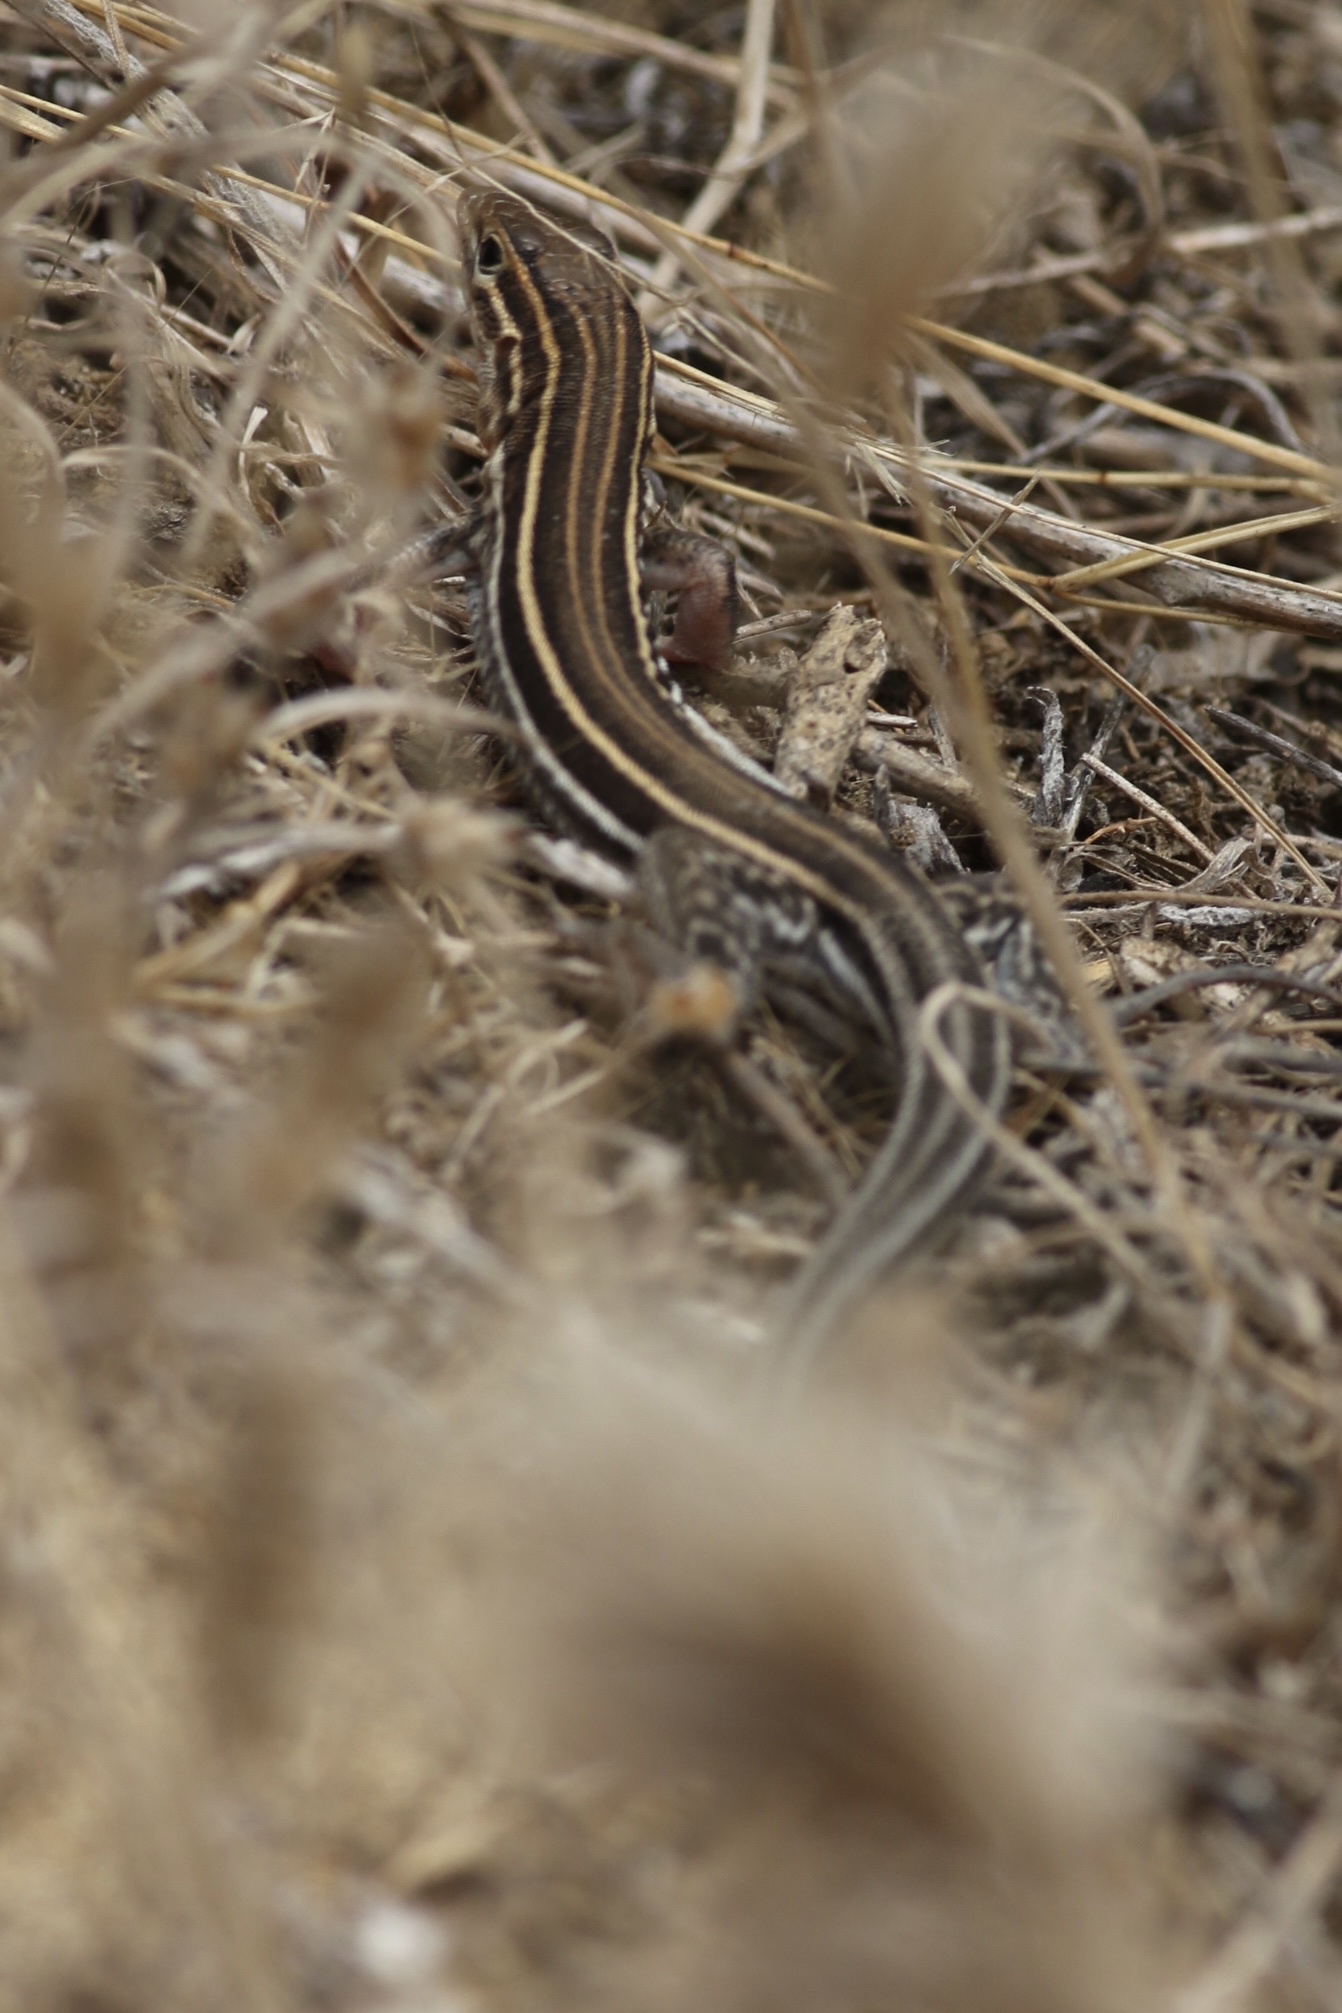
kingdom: Animalia
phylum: Chordata
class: Squamata
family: Teiidae
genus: Aspidoscelis
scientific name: Aspidoscelis hyperythrus
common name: Orange-throated race-runner
